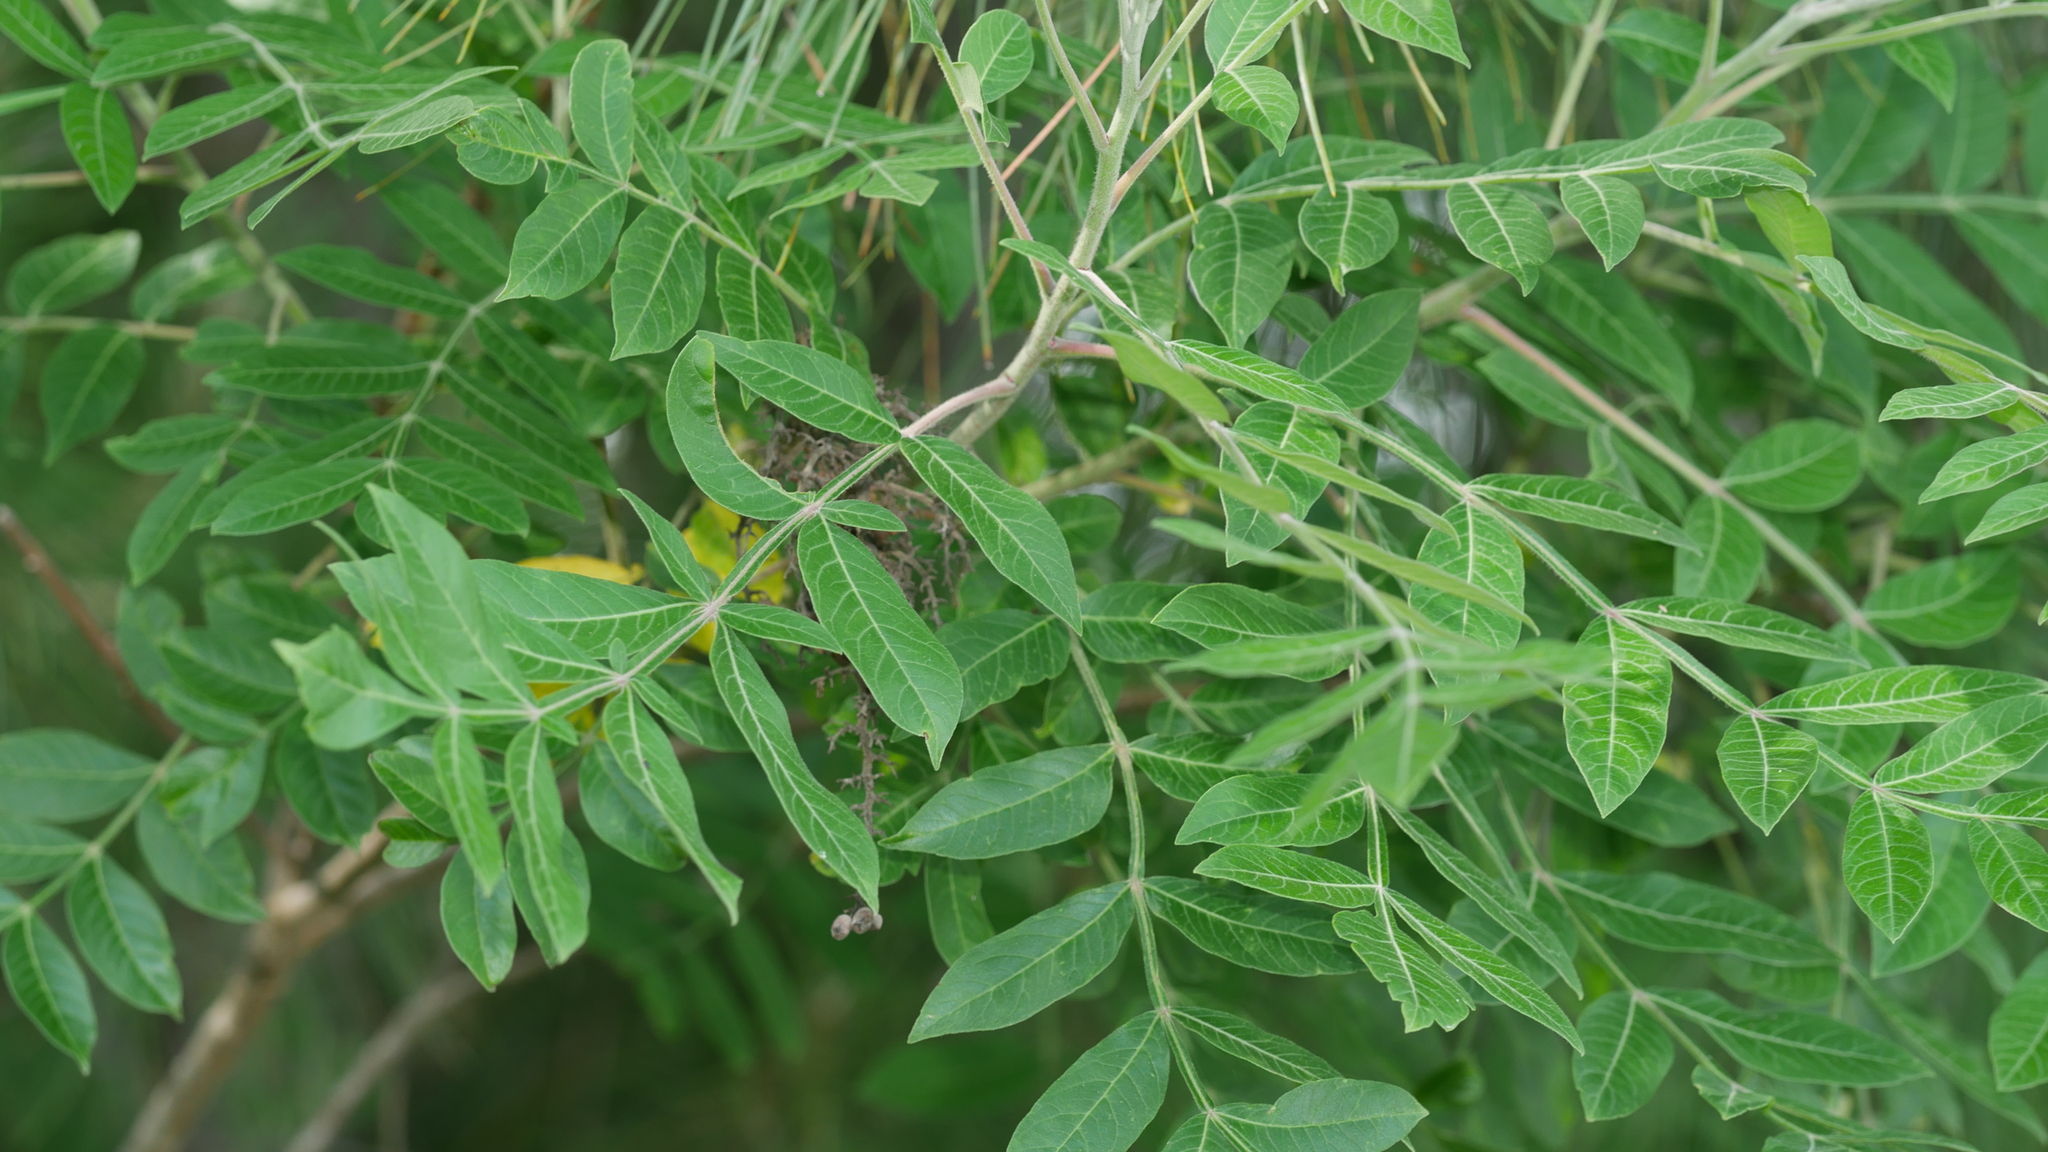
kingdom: Plantae
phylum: Tracheophyta
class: Magnoliopsida
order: Sapindales
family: Anacardiaceae
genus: Rhus
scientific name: Rhus copallina
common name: Shining sumac
